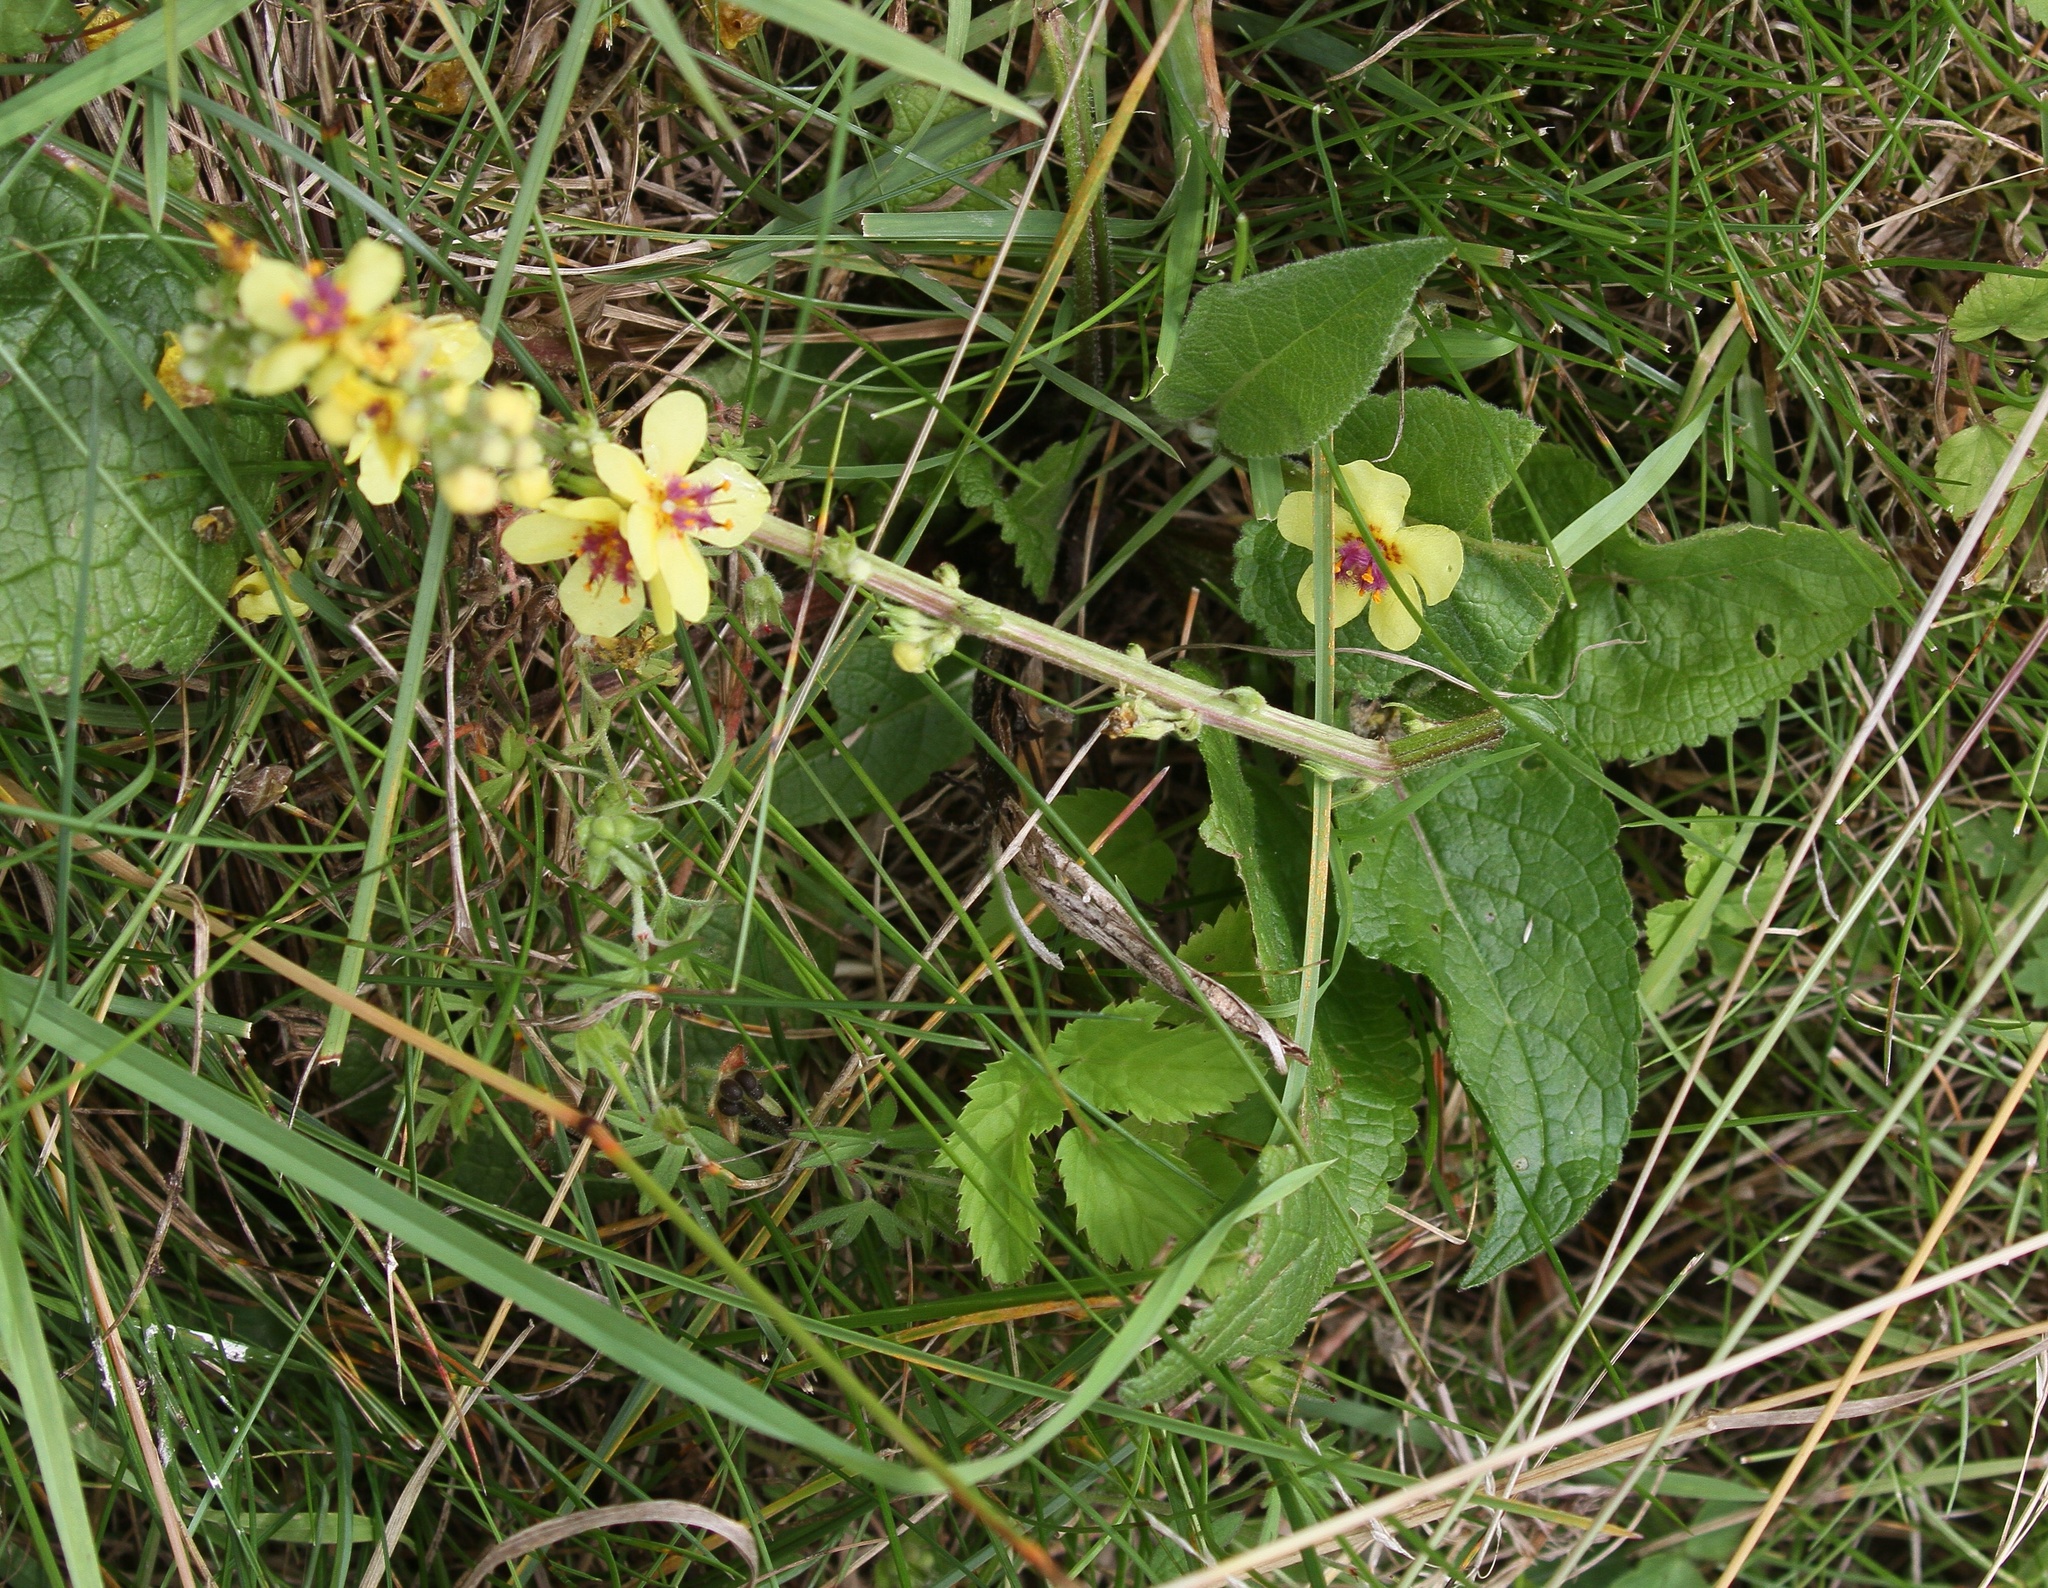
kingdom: Plantae
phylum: Tracheophyta
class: Magnoliopsida
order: Lamiales
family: Scrophulariaceae
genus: Verbascum
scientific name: Verbascum nigrum
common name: Dark mullein
